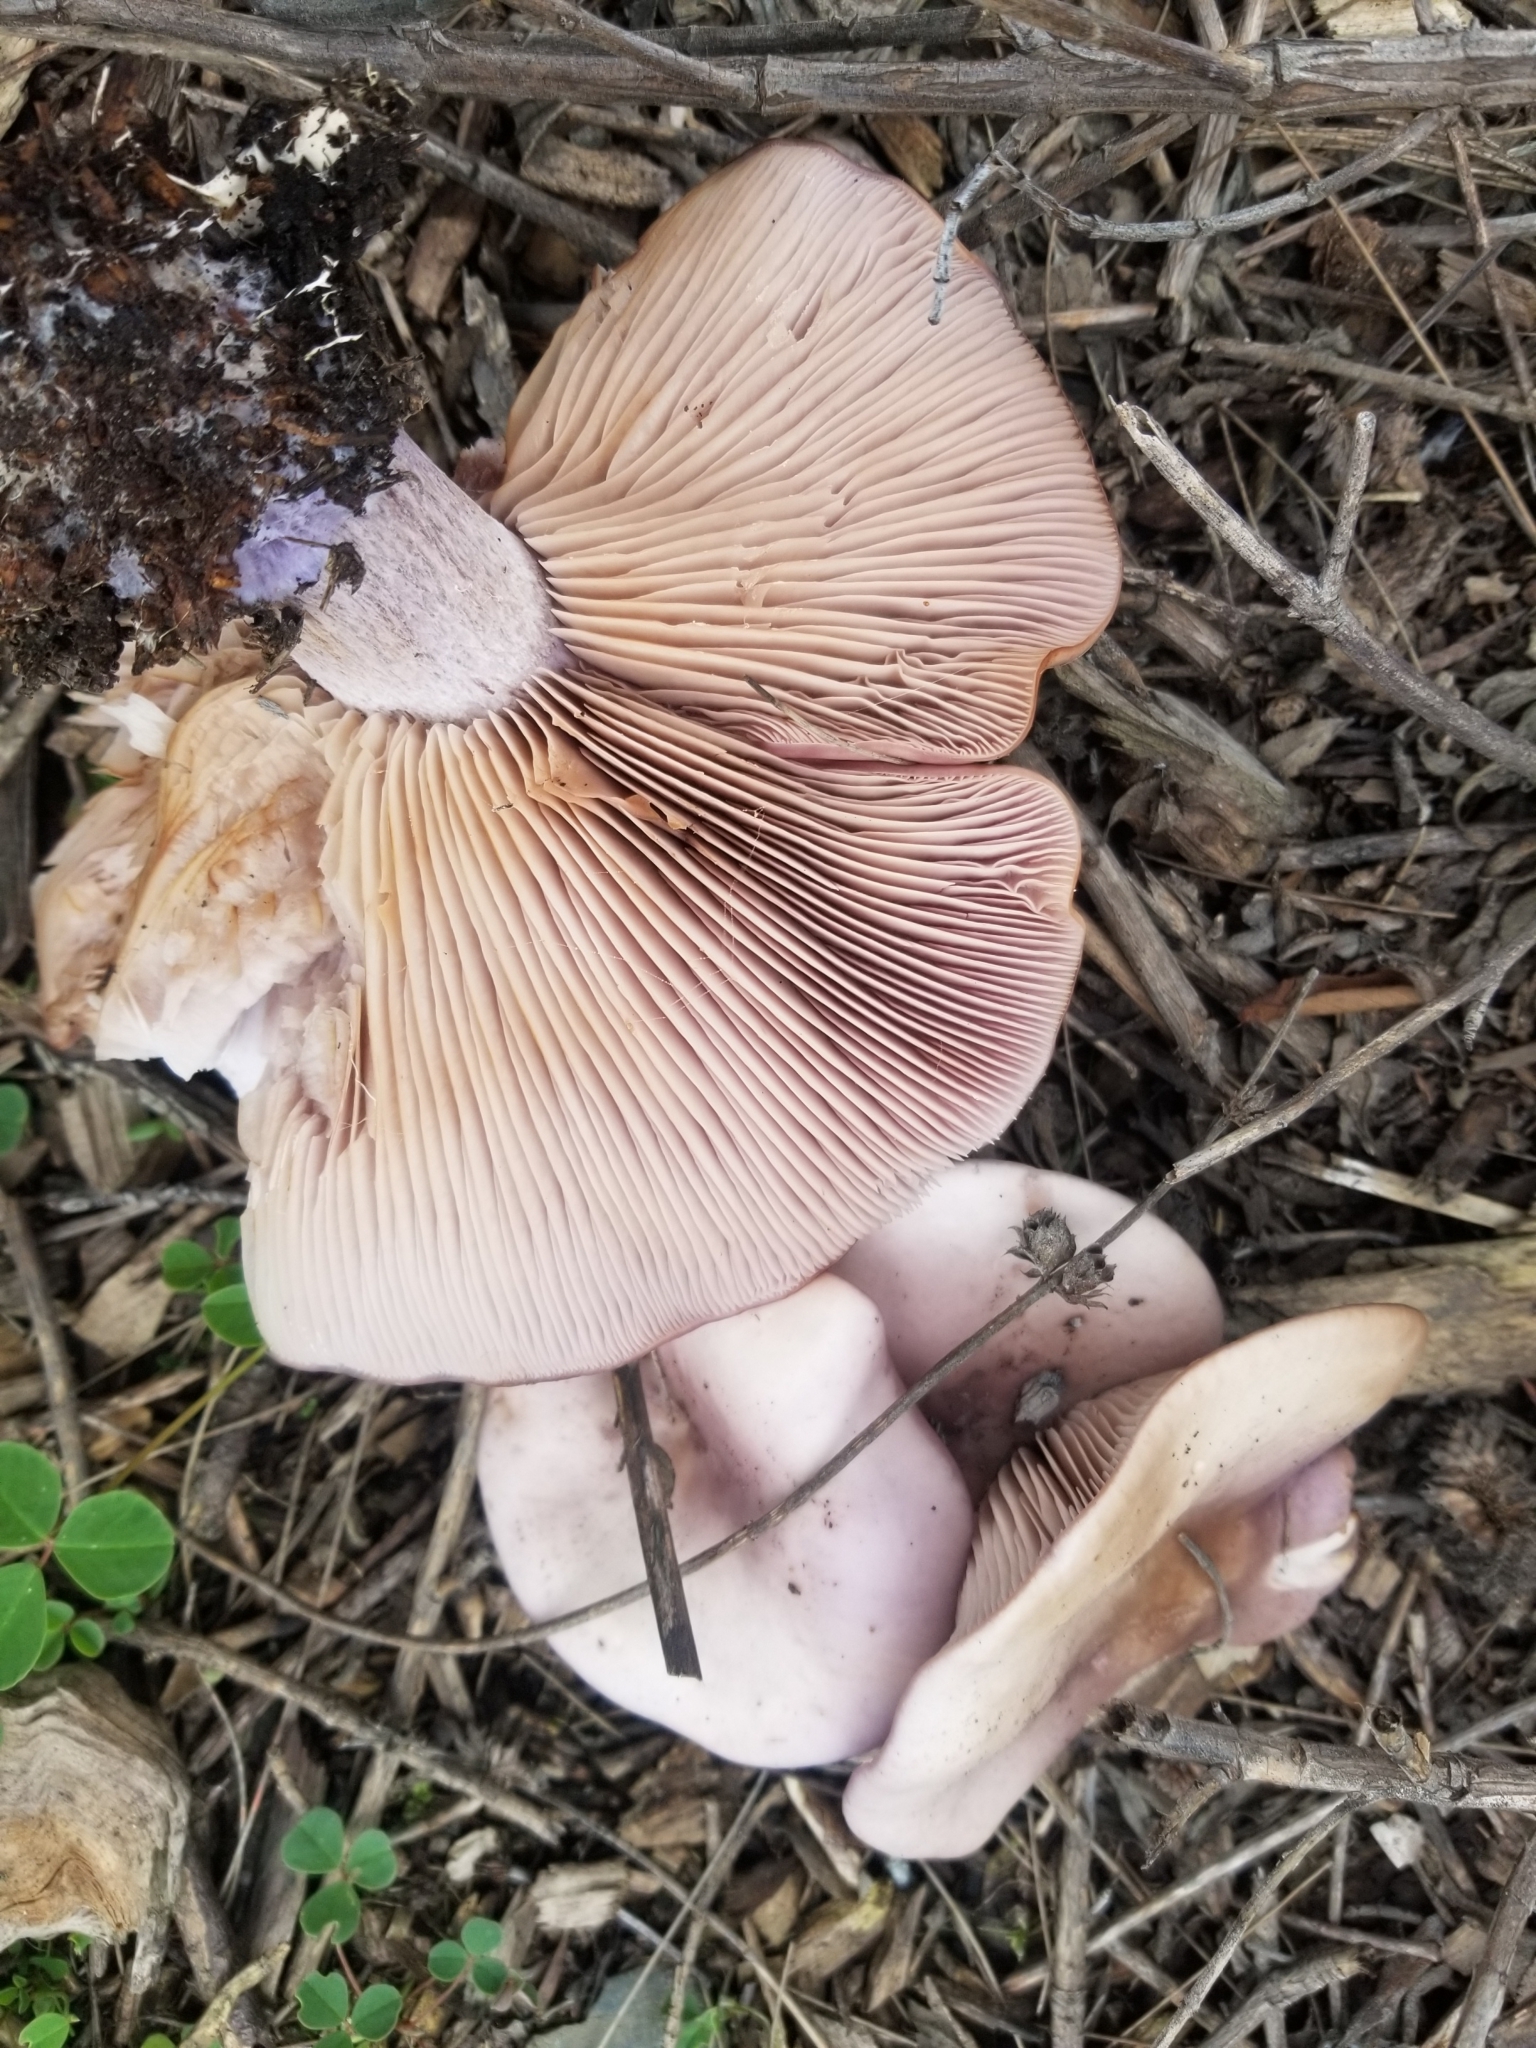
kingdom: Fungi
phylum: Basidiomycota
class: Agaricomycetes
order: Agaricales
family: Tricholomataceae
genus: Collybia
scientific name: Collybia
